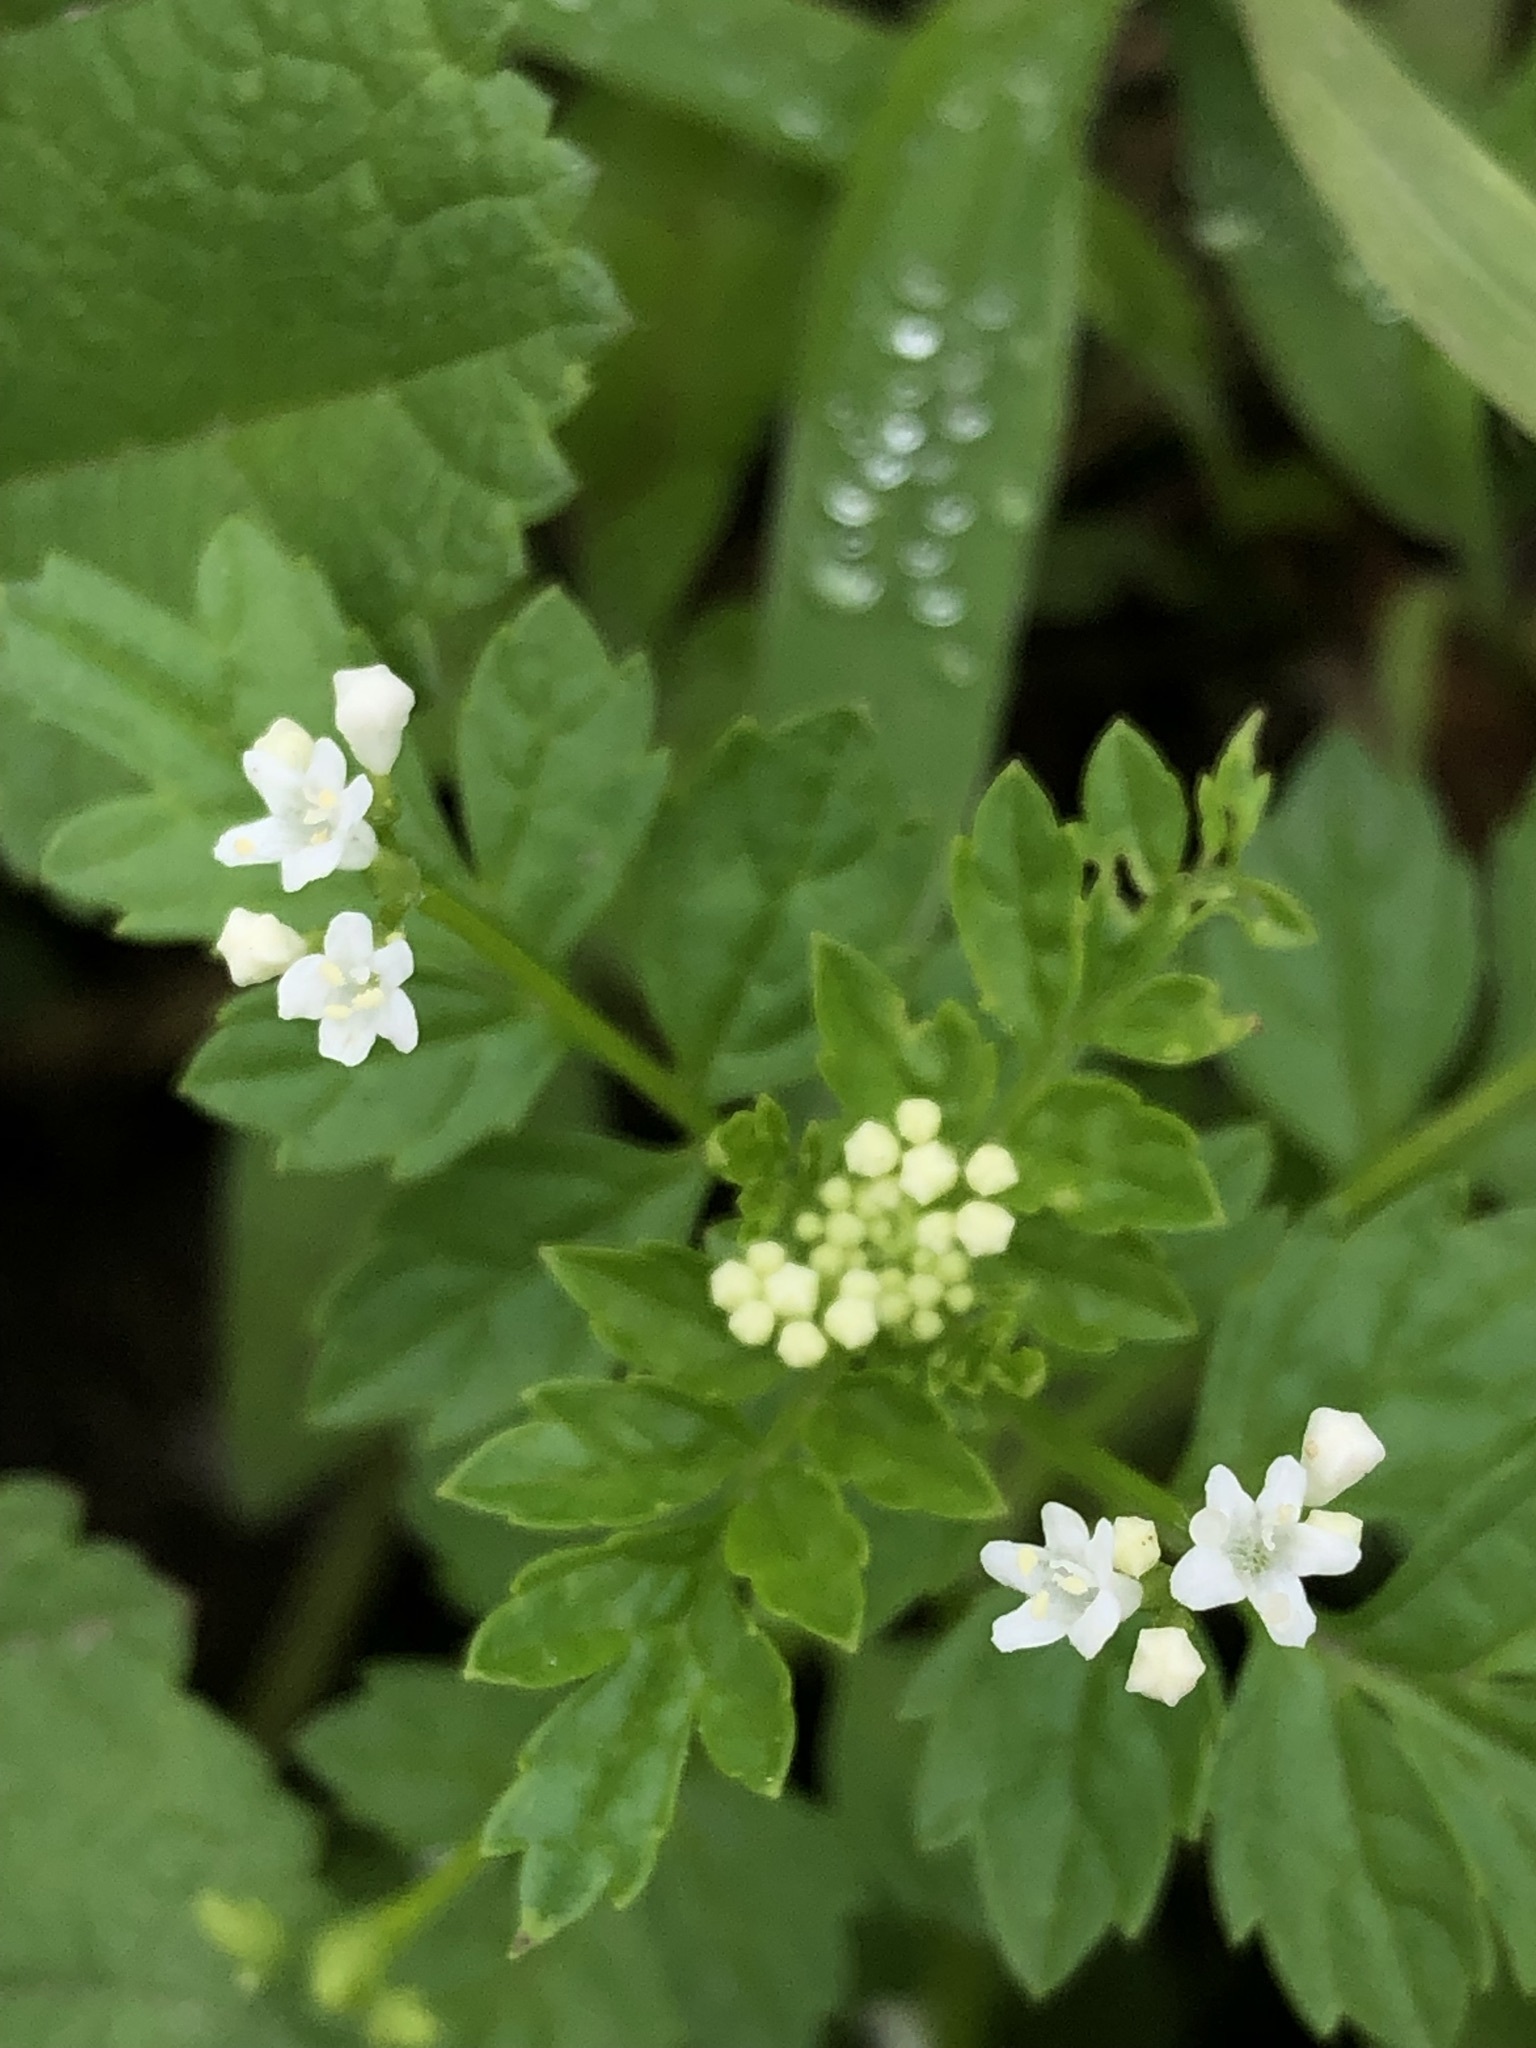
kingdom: Plantae
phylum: Tracheophyta
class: Magnoliopsida
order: Dipsacales
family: Caprifoliaceae
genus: Valeriana
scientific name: Valeriana chaerophylloides
